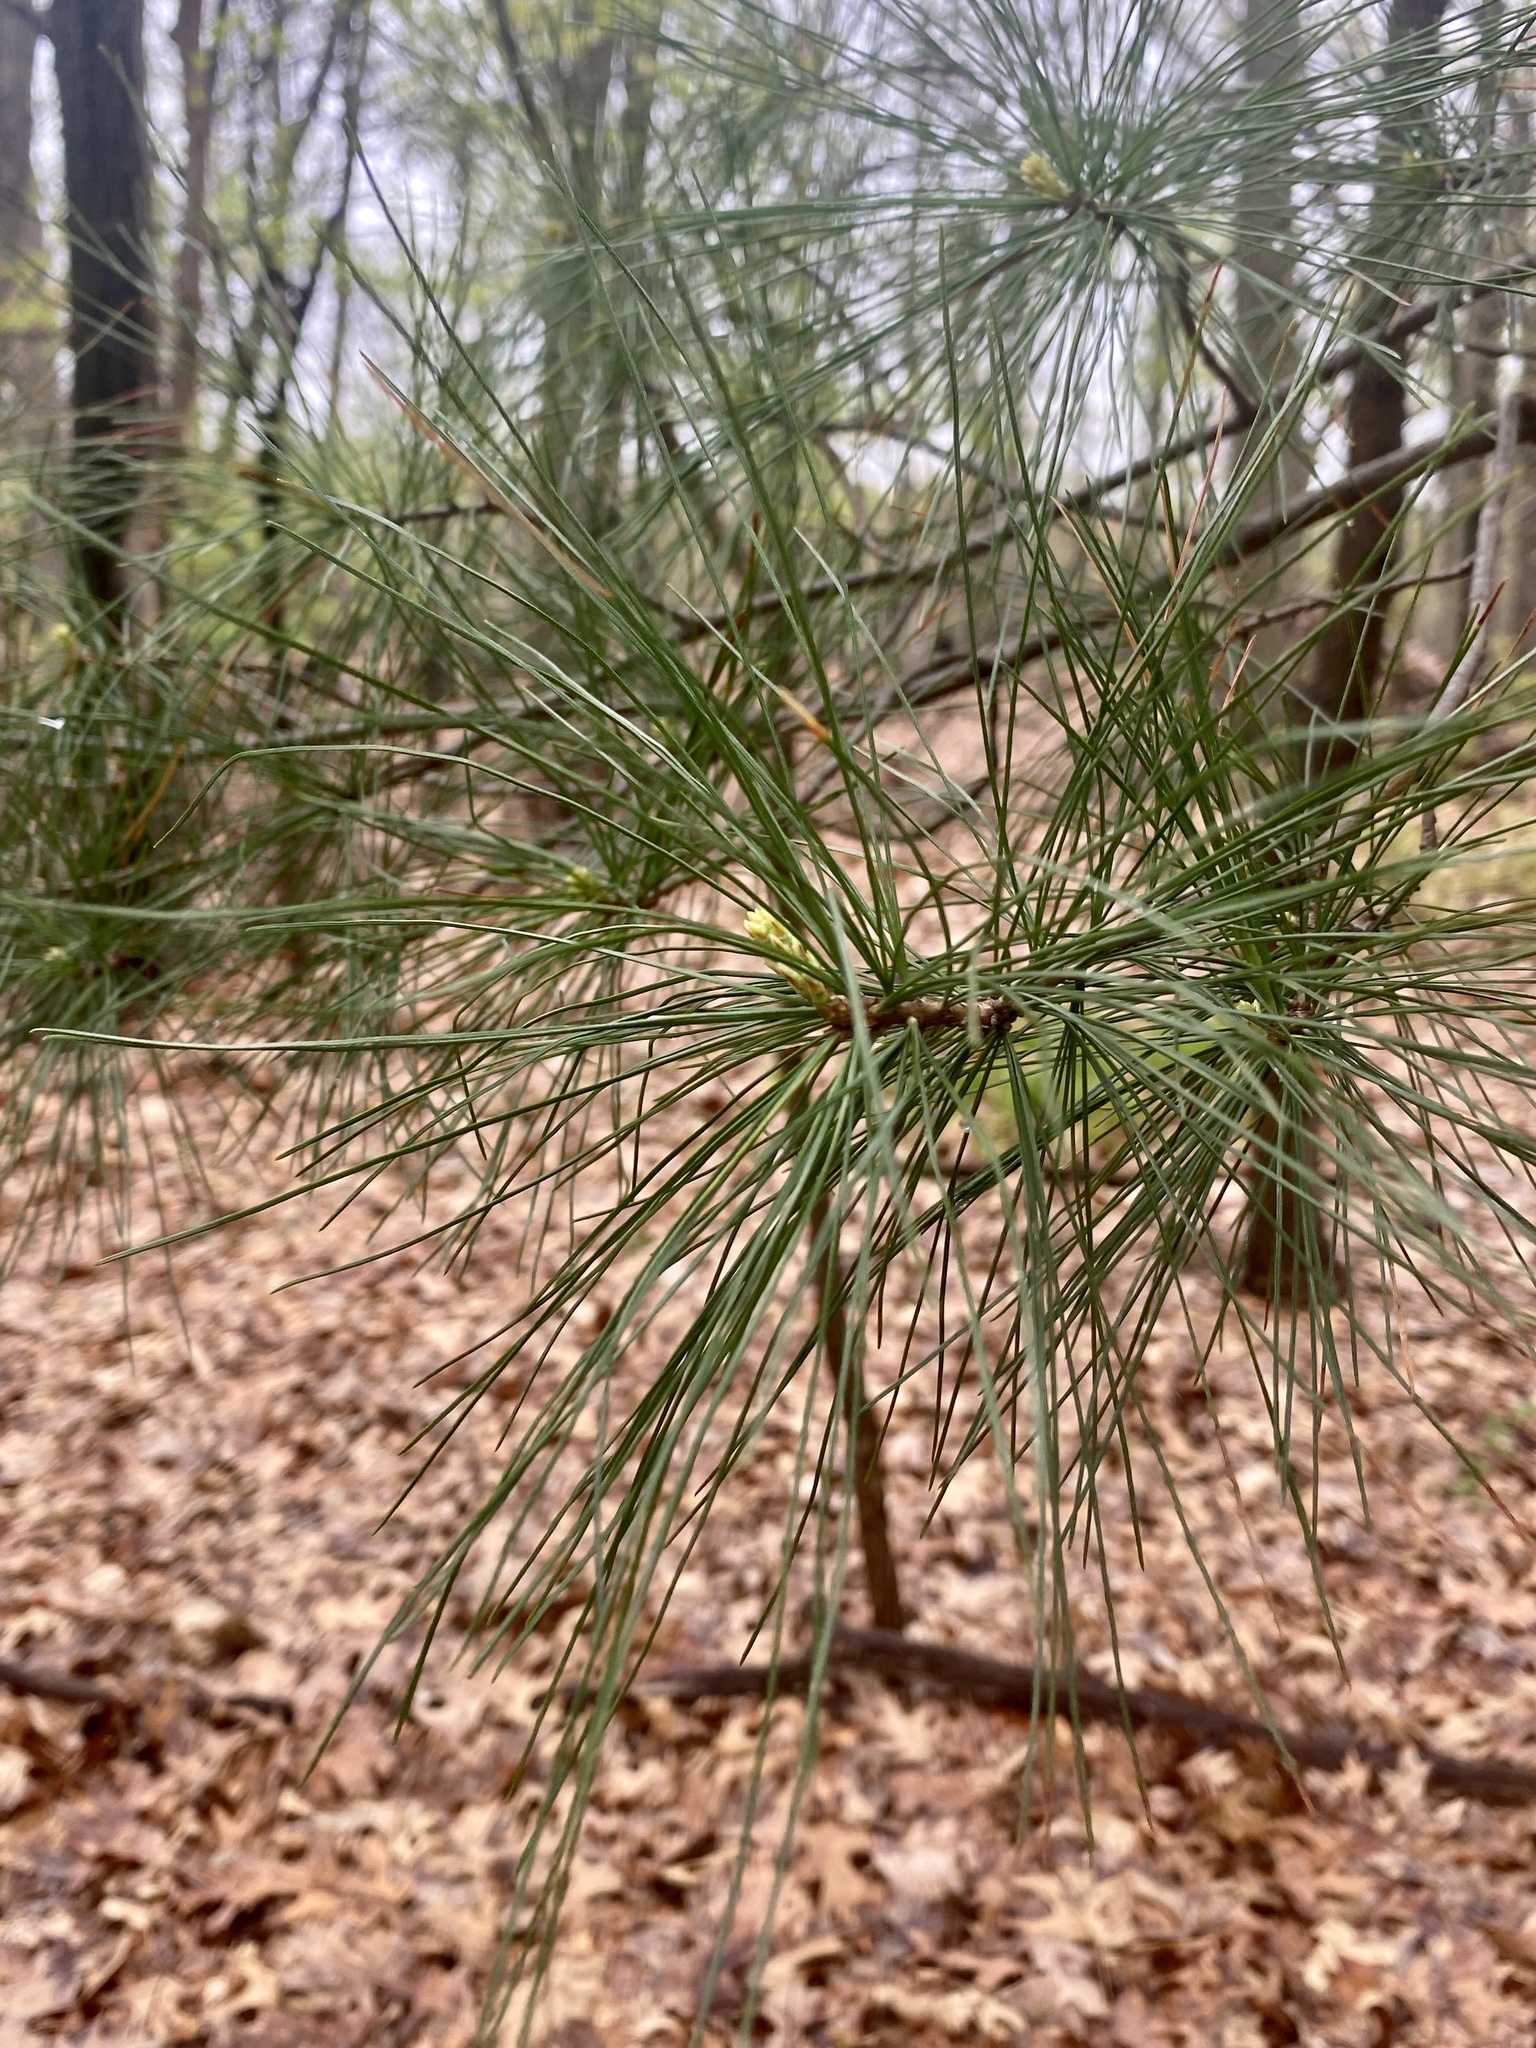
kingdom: Plantae
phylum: Tracheophyta
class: Pinopsida
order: Pinales
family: Pinaceae
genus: Pinus
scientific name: Pinus strobus
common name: Weymouth pine
